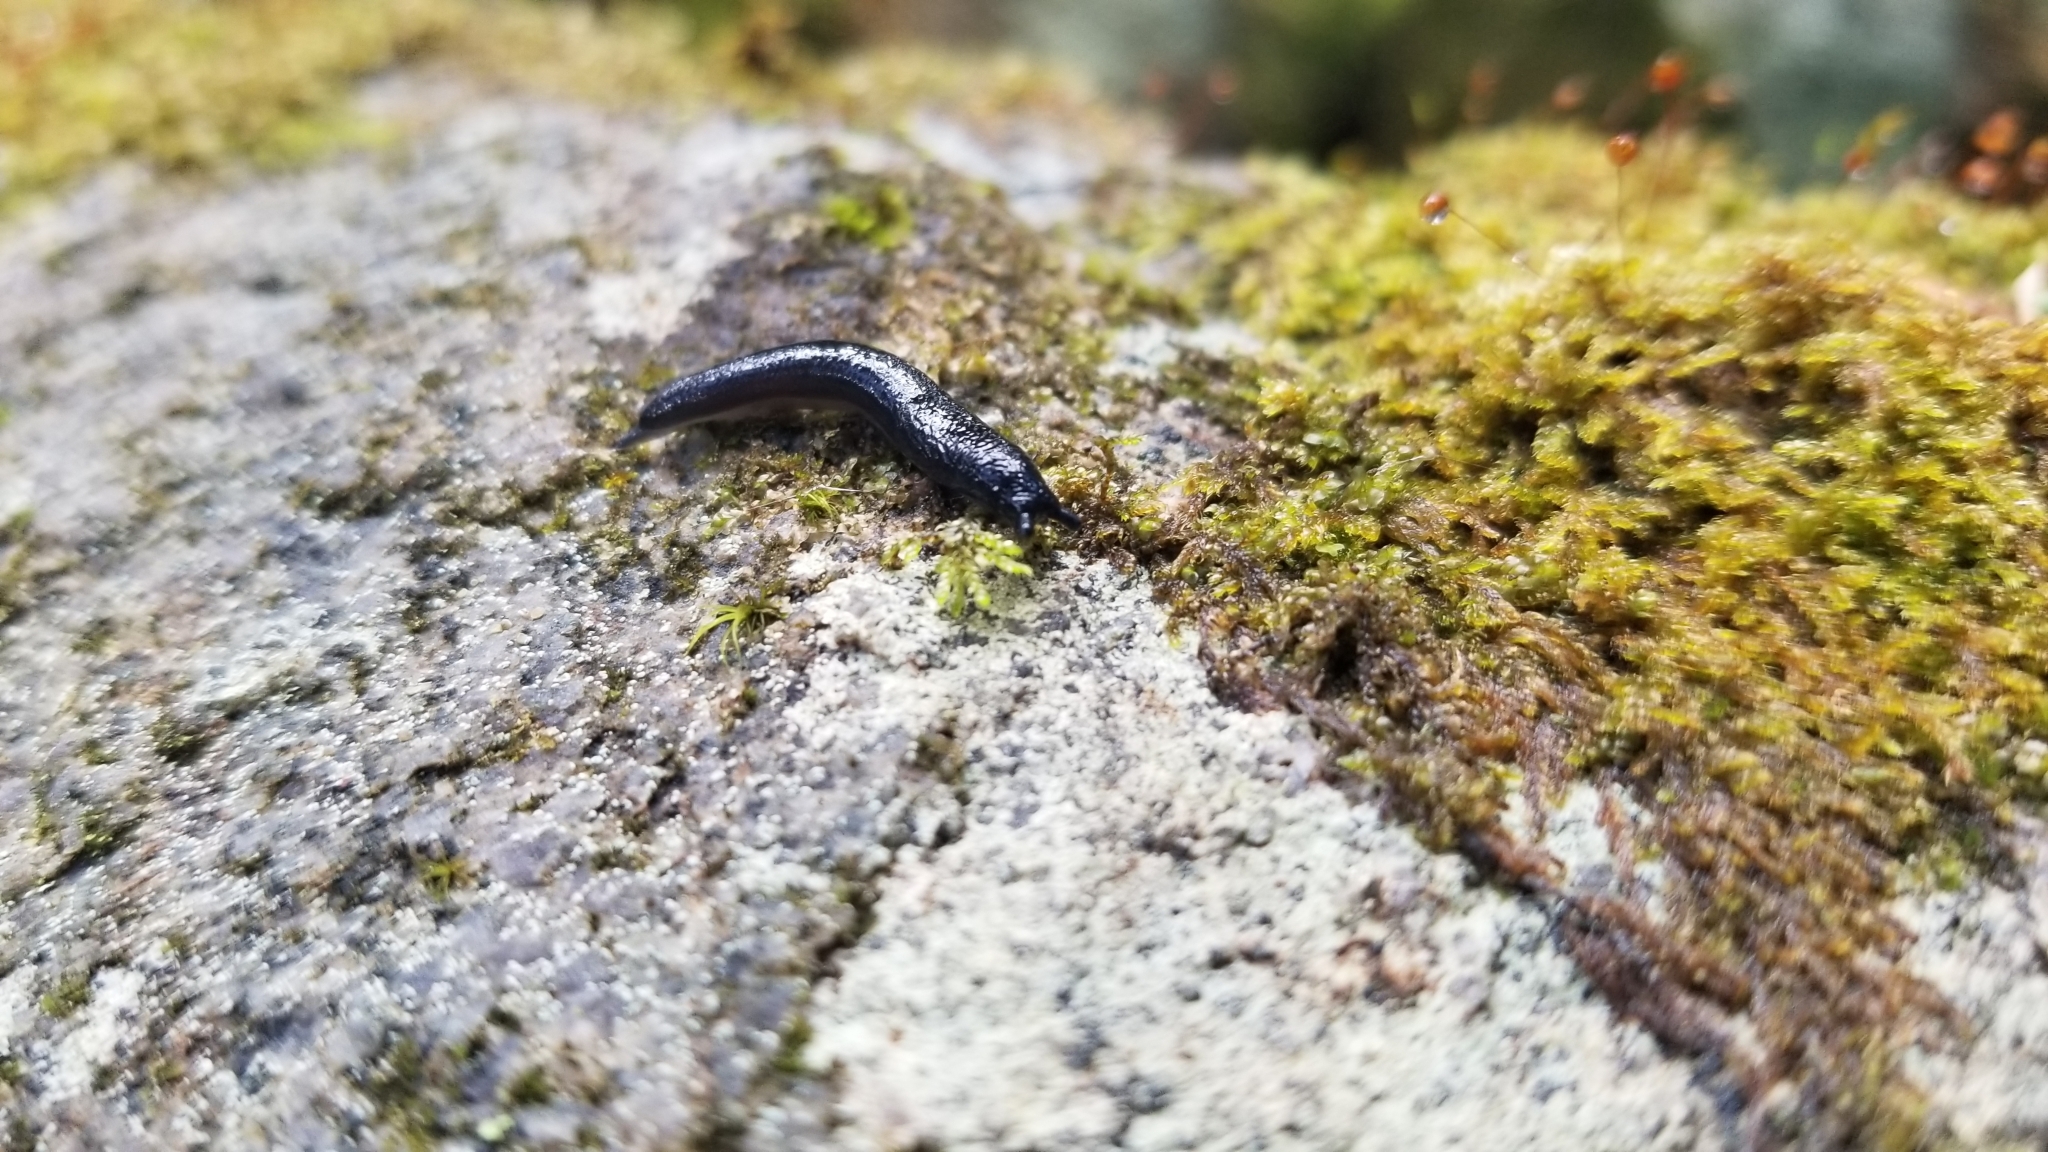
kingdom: Animalia
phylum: Mollusca
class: Gastropoda
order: Stylommatophora
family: Philomycidae
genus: Pallifera
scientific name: Pallifera hemphilli
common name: Black mantleslug
